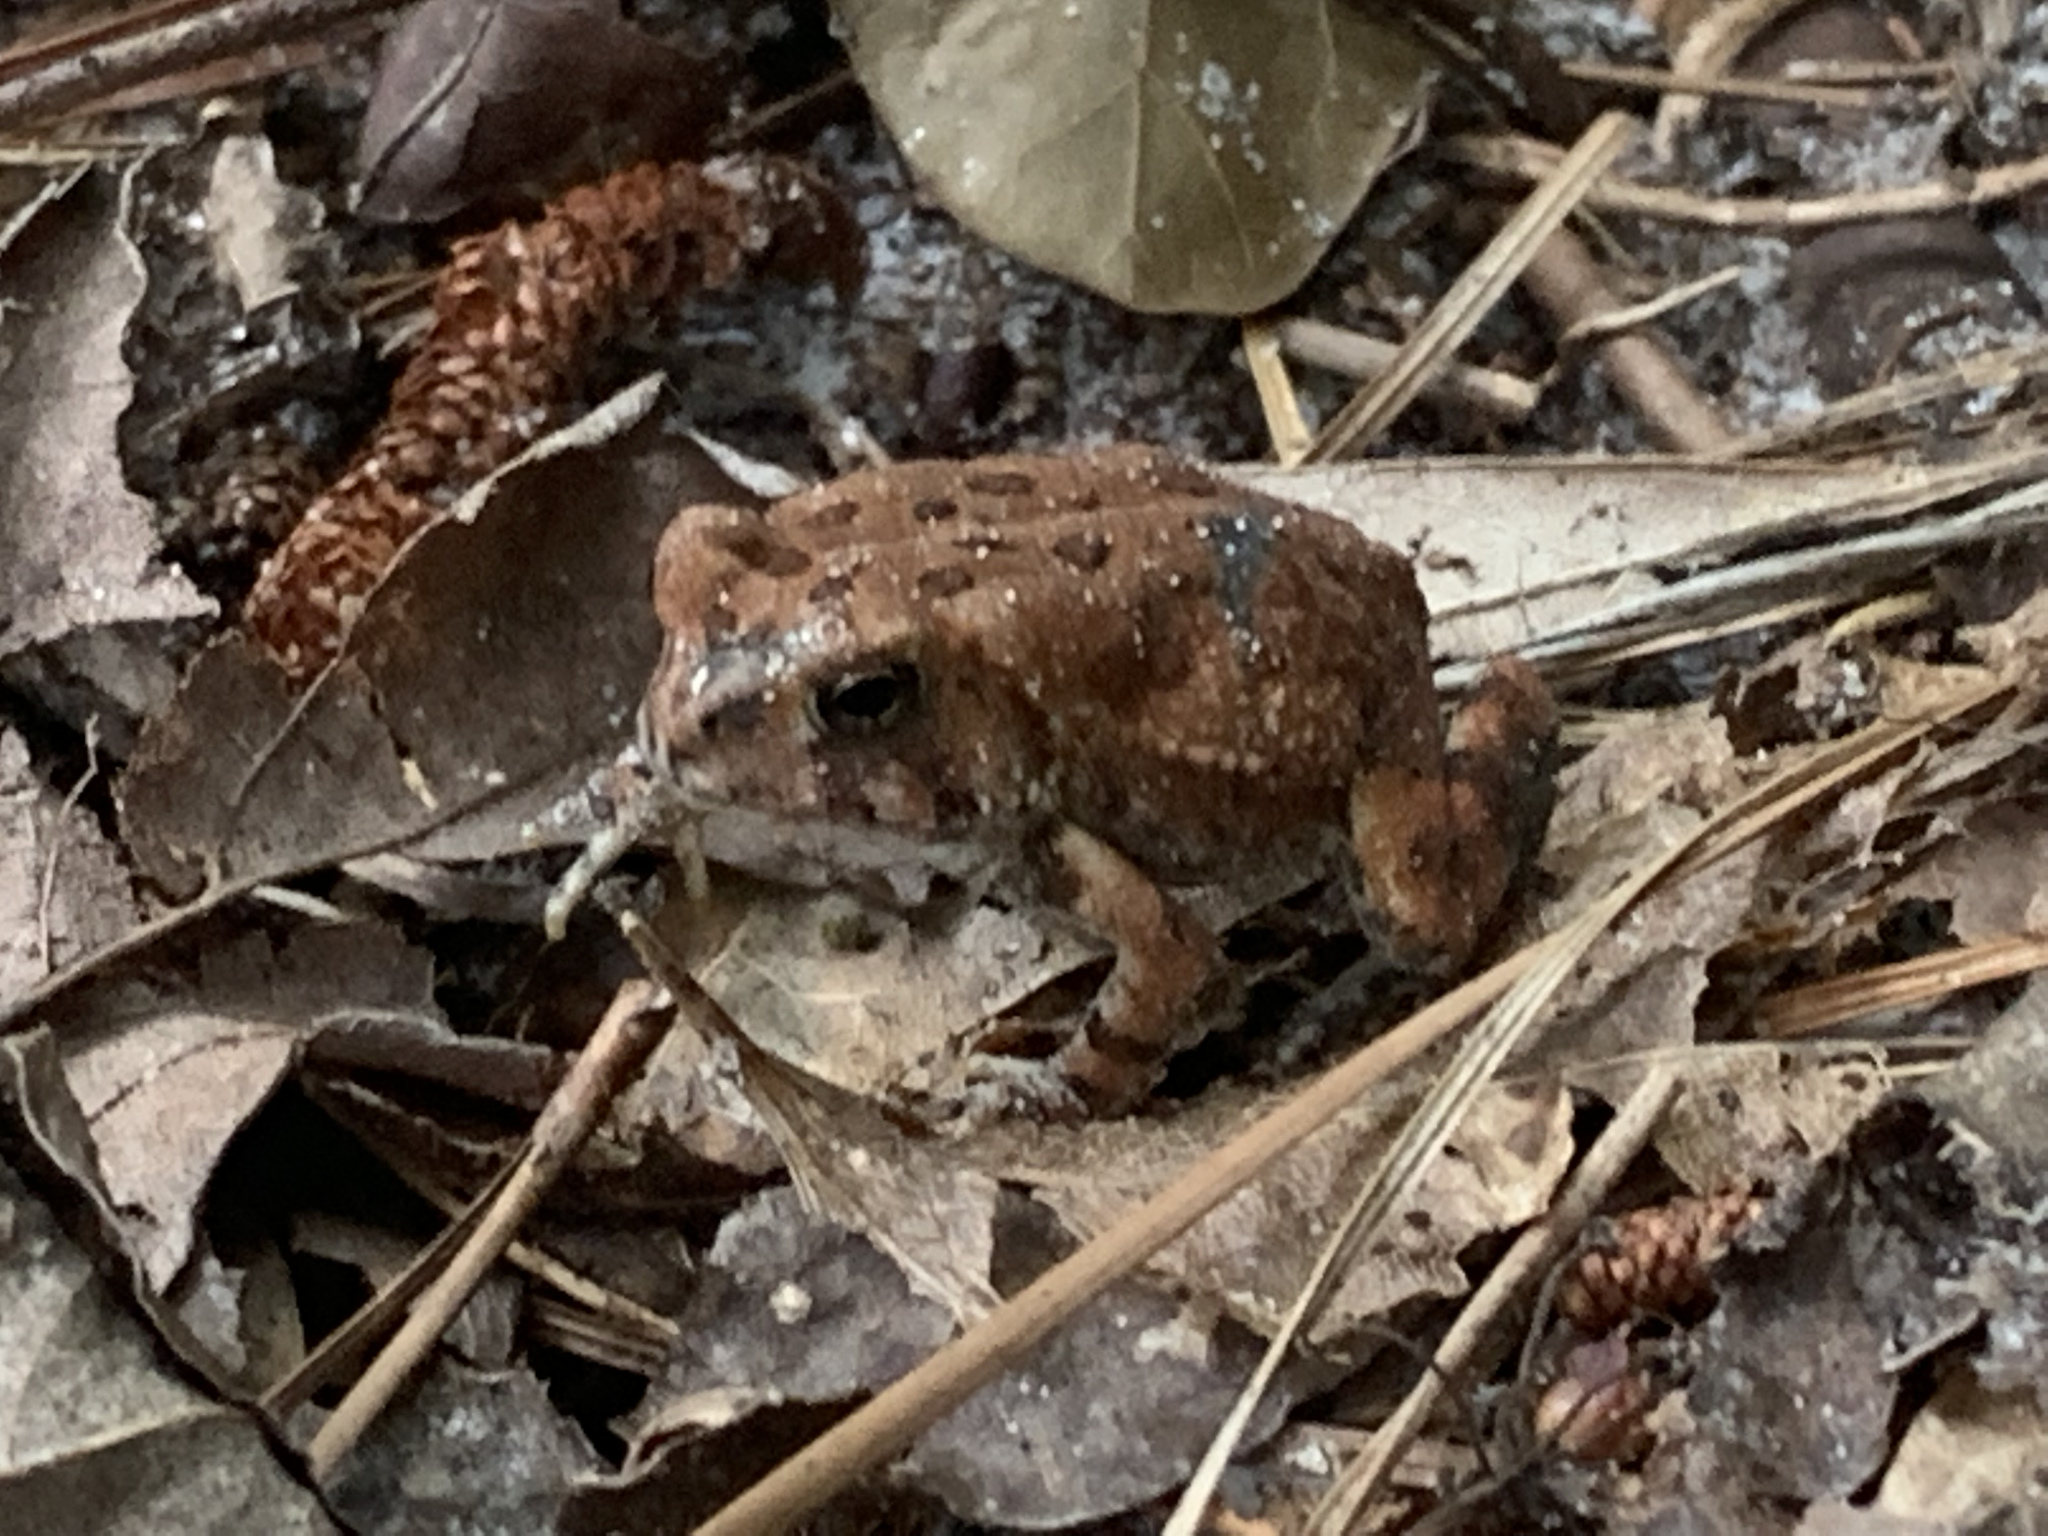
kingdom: Animalia
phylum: Chordata
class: Amphibia
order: Anura
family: Bufonidae
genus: Anaxyrus
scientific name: Anaxyrus fowleri
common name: Fowler's toad
